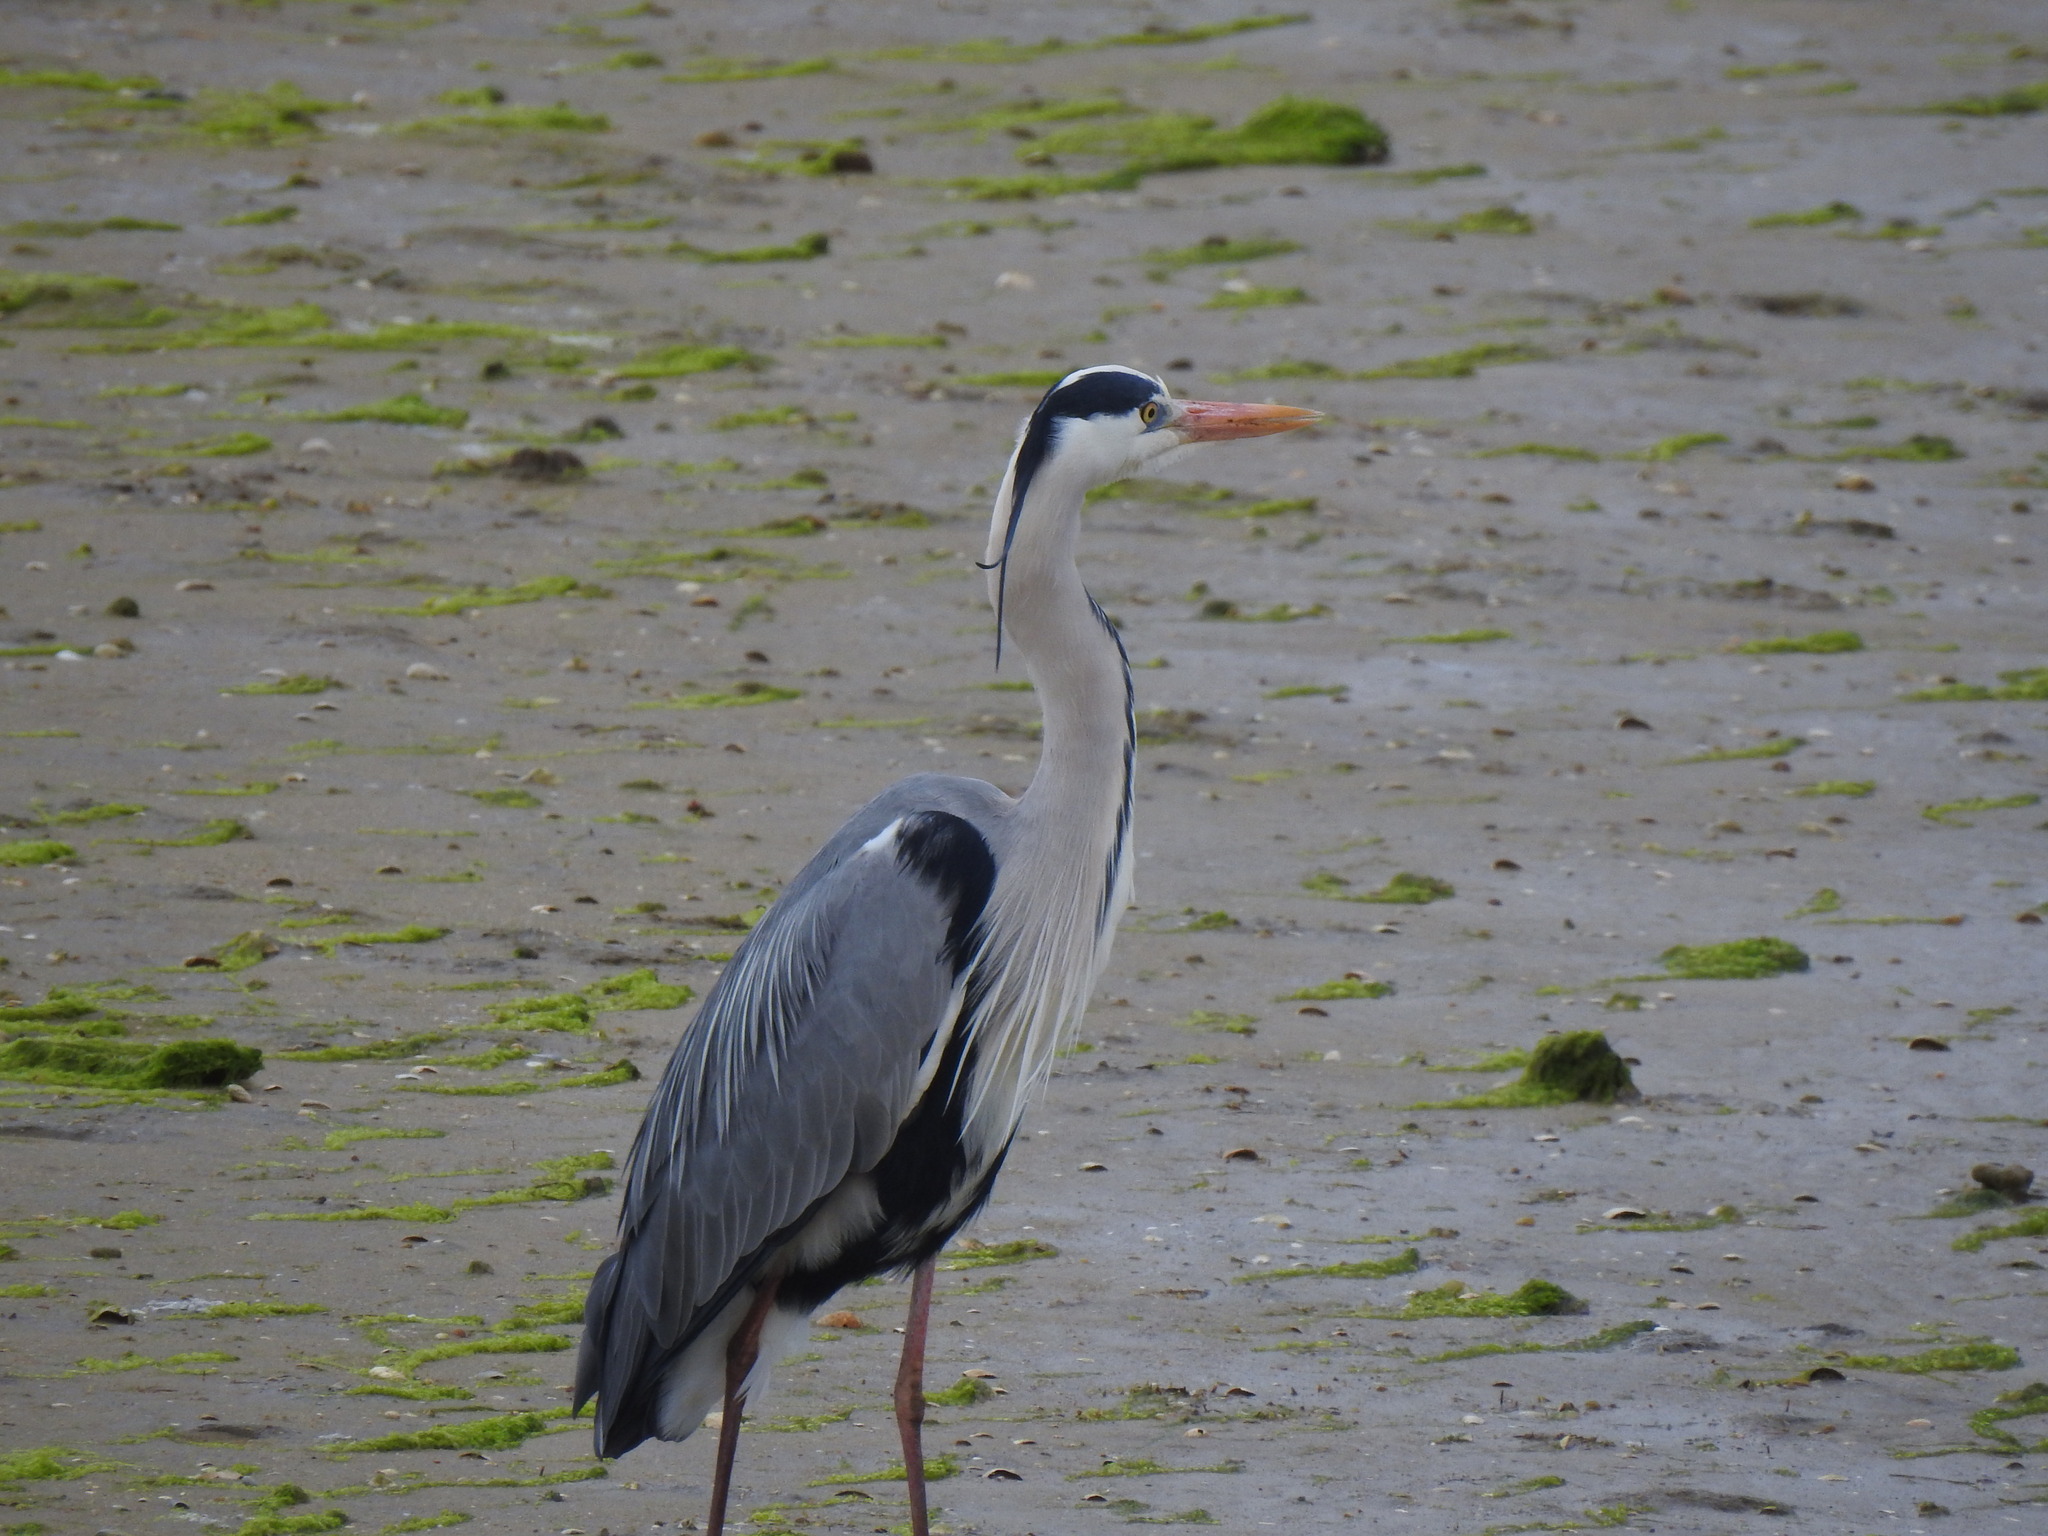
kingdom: Animalia
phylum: Chordata
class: Aves
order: Pelecaniformes
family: Ardeidae
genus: Ardea
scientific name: Ardea cinerea
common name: Grey heron
